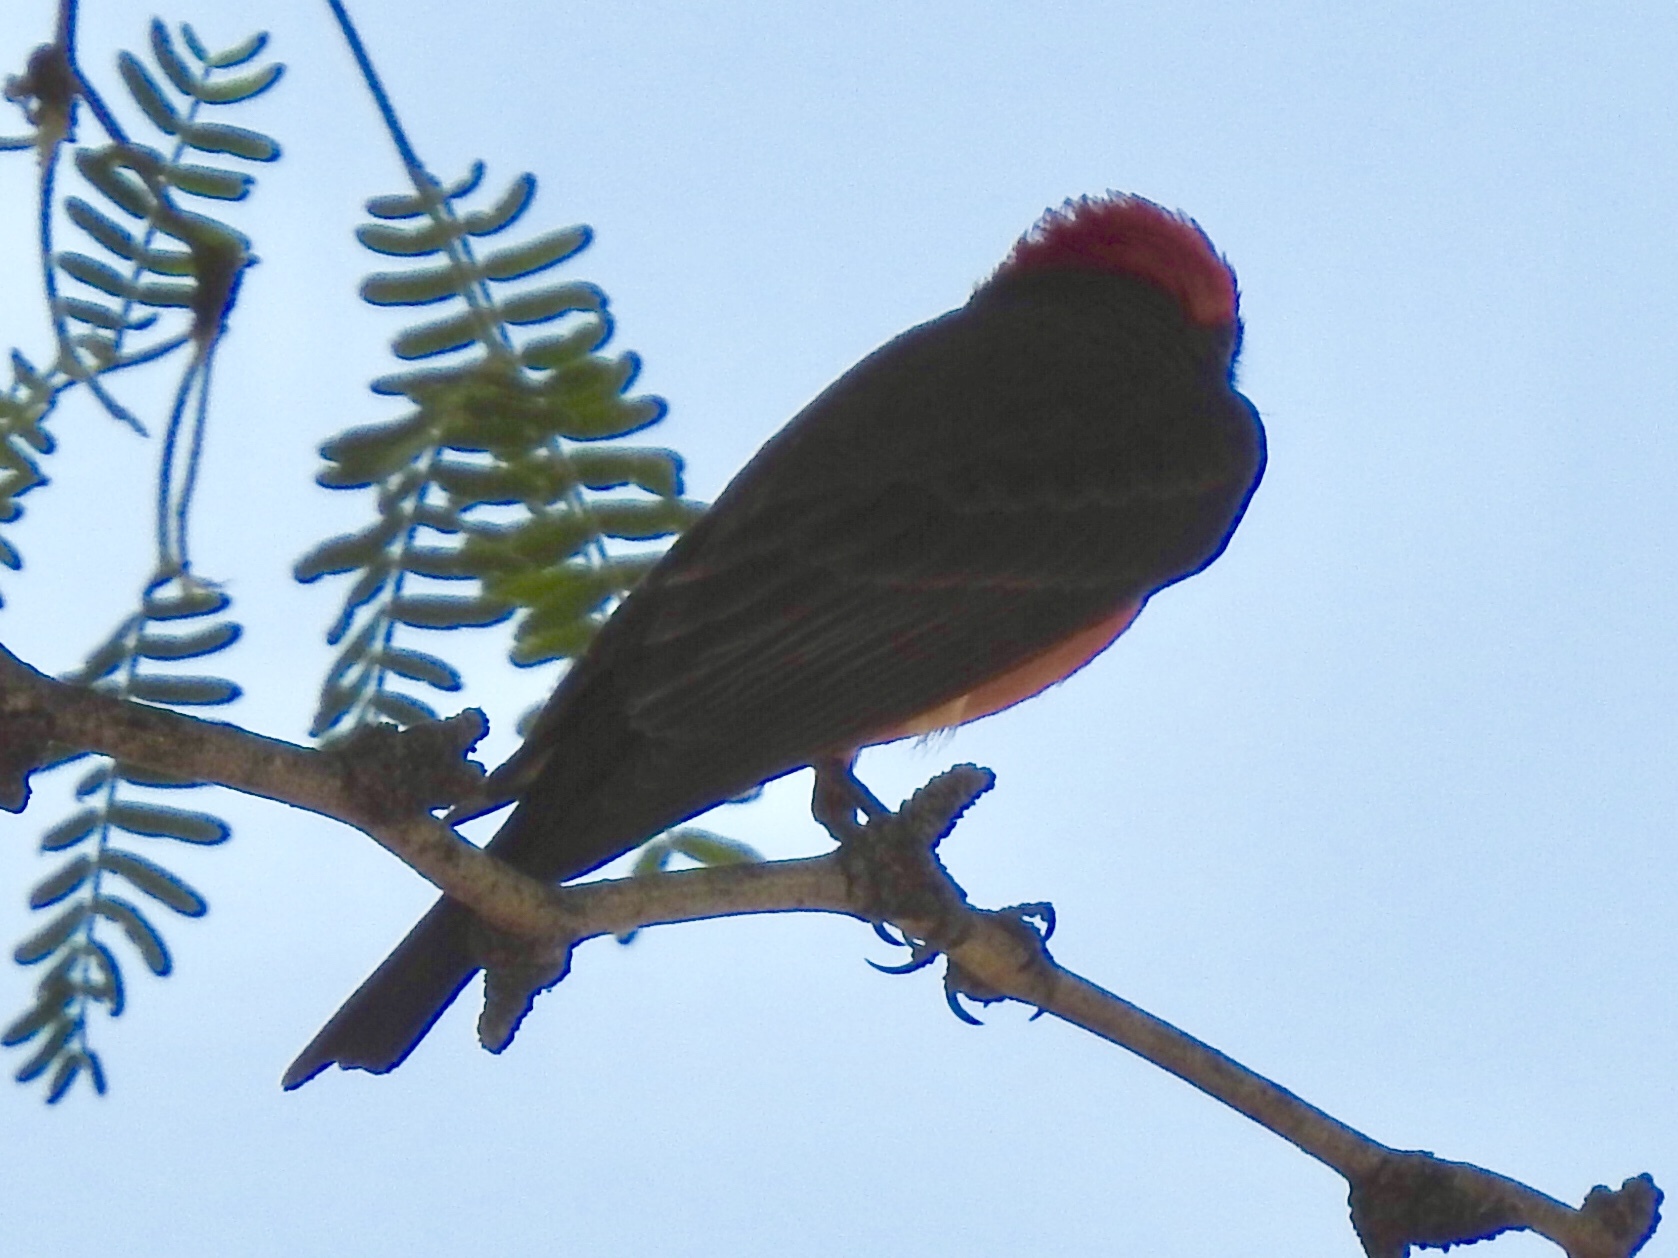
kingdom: Animalia
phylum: Chordata
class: Aves
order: Passeriformes
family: Tyrannidae
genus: Pyrocephalus
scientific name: Pyrocephalus rubinus
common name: Vermilion flycatcher
